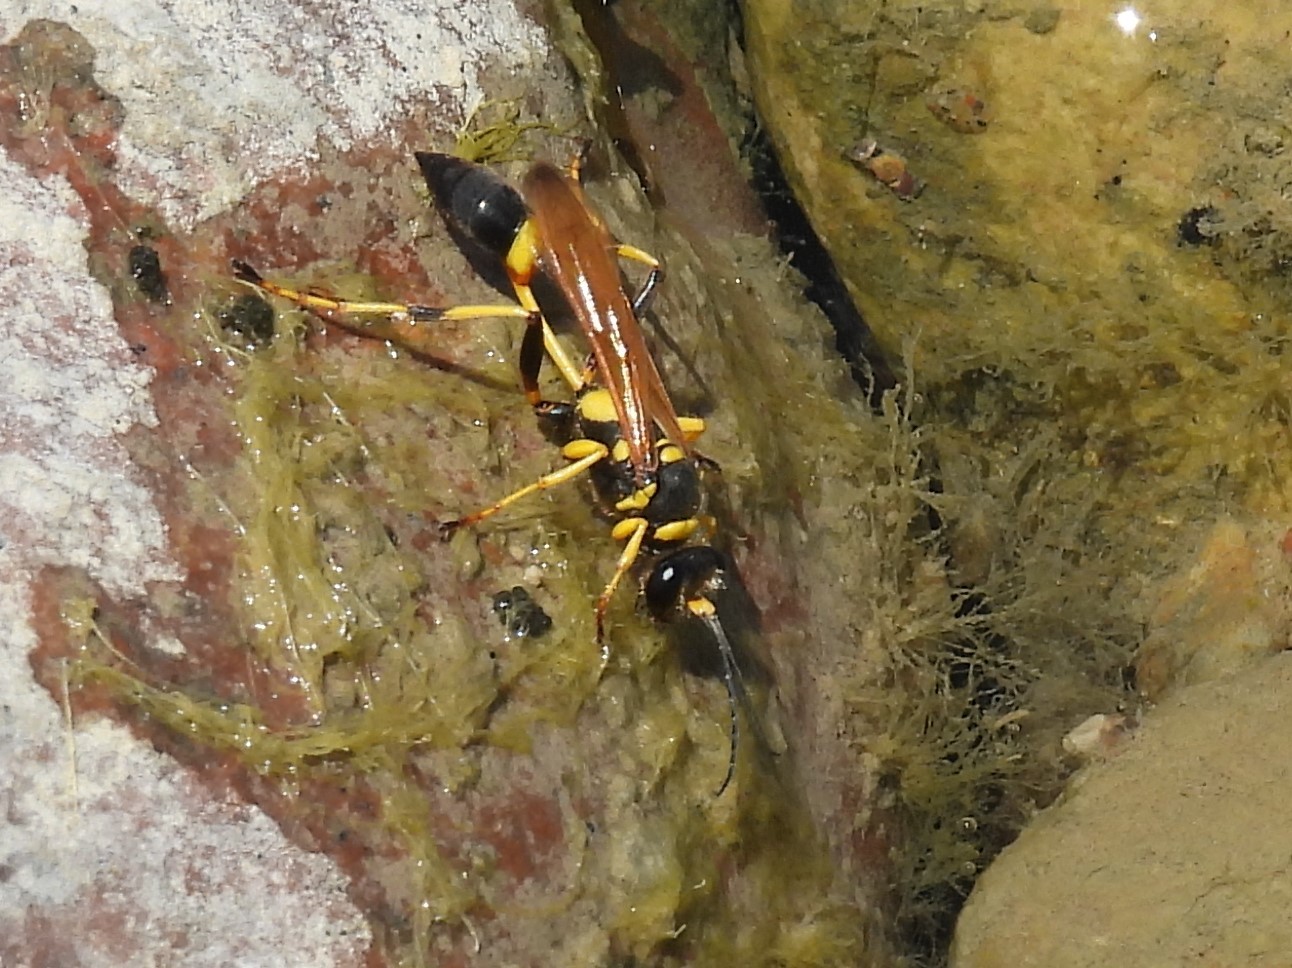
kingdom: Animalia
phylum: Arthropoda
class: Insecta
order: Hymenoptera
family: Sphecidae
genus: Sceliphron
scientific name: Sceliphron caementarium
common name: Mud dauber
